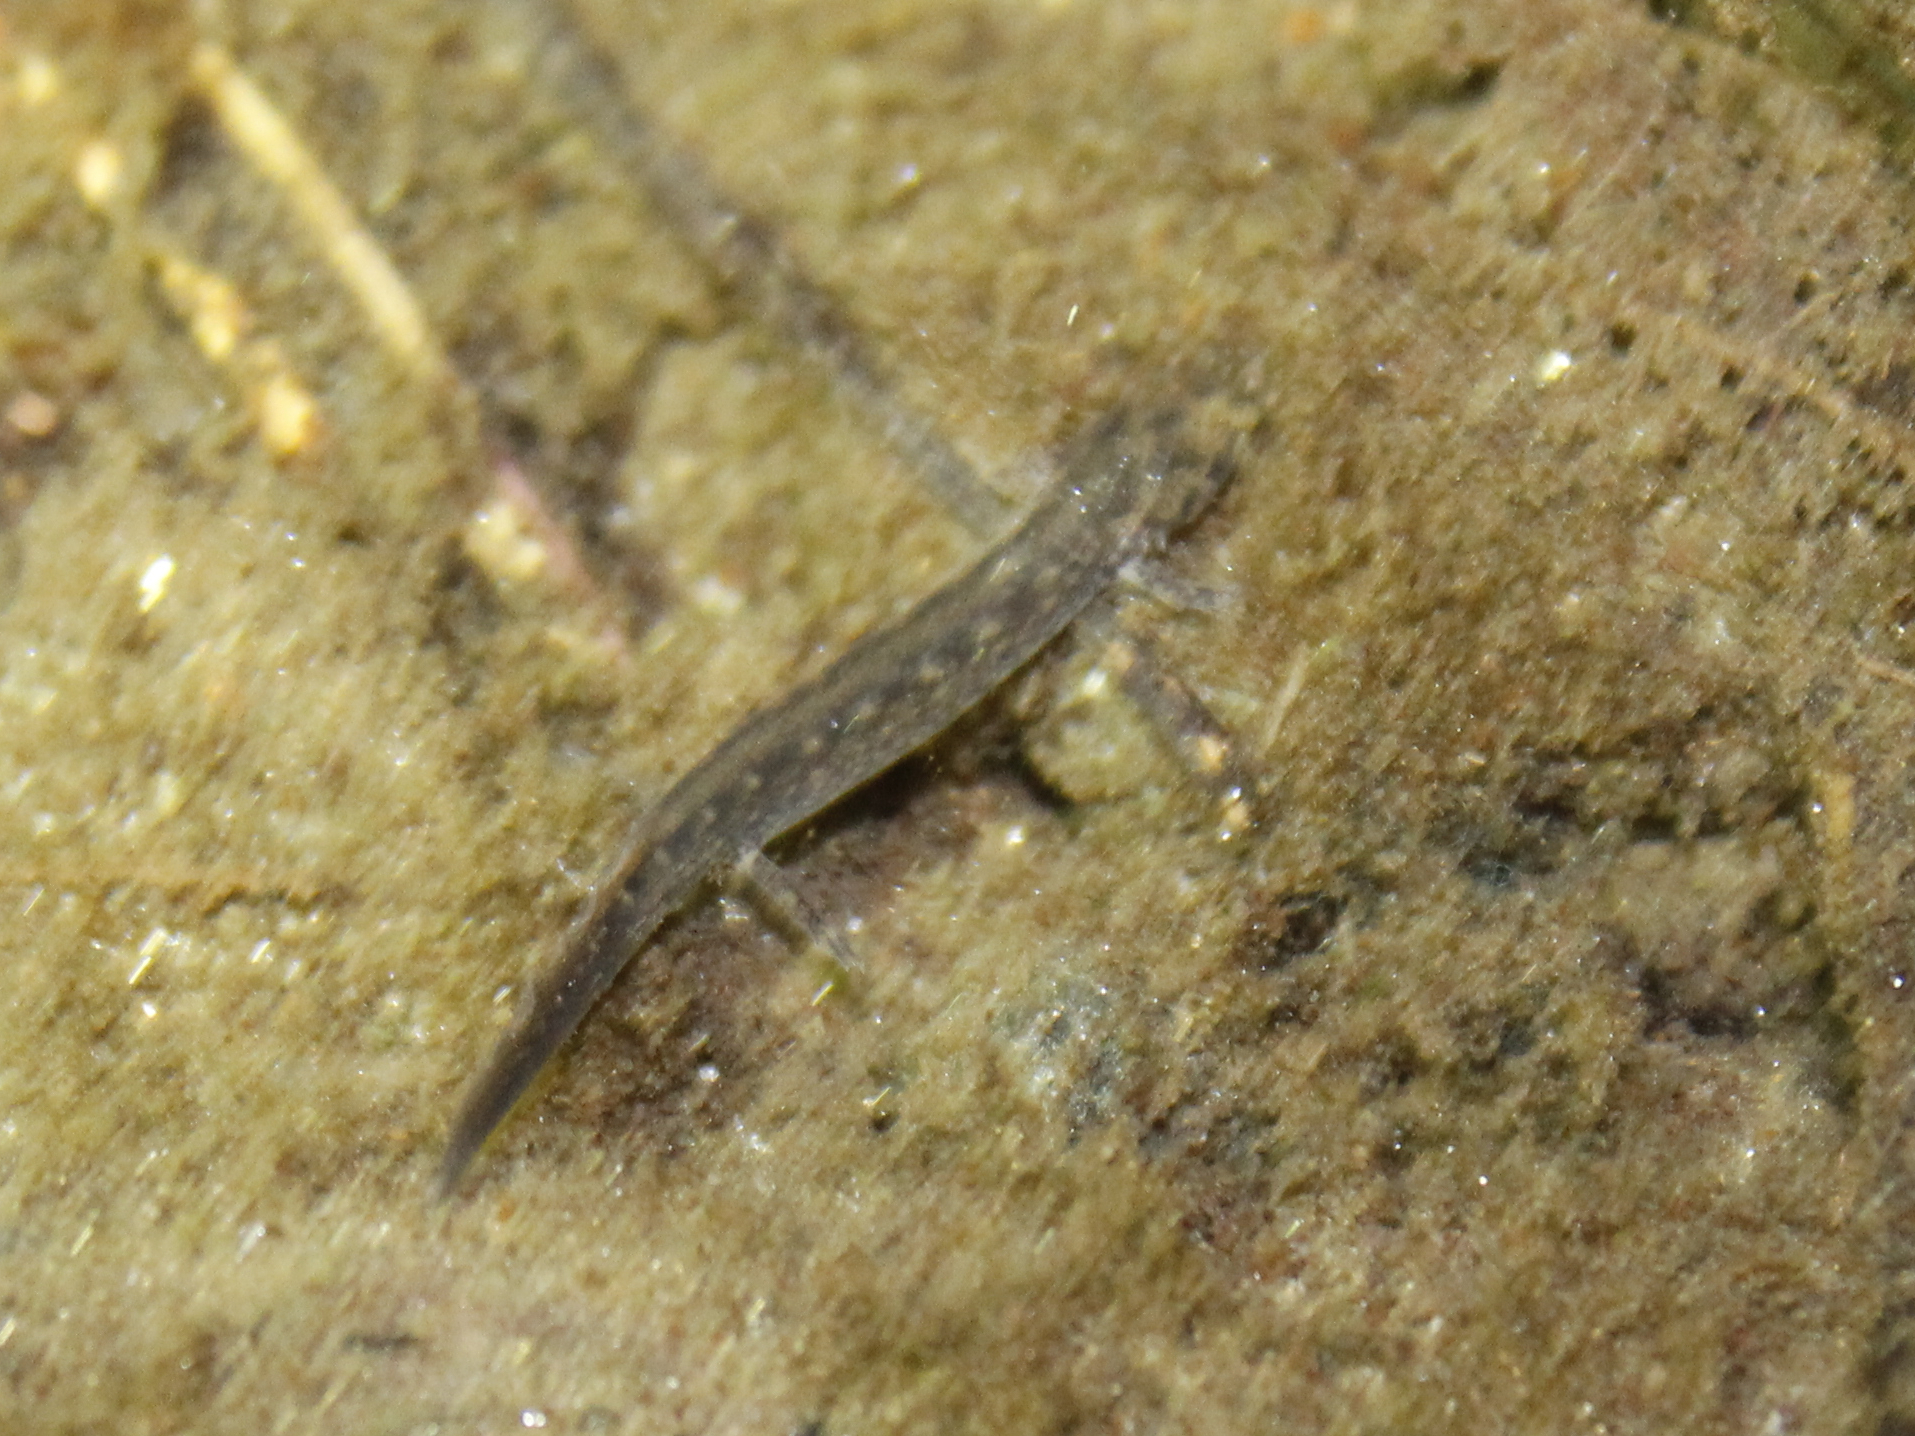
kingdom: Animalia
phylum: Chordata
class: Amphibia
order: Caudata
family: Plethodontidae
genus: Eurycea
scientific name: Eurycea bislineata
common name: Northern two-lined salamander
